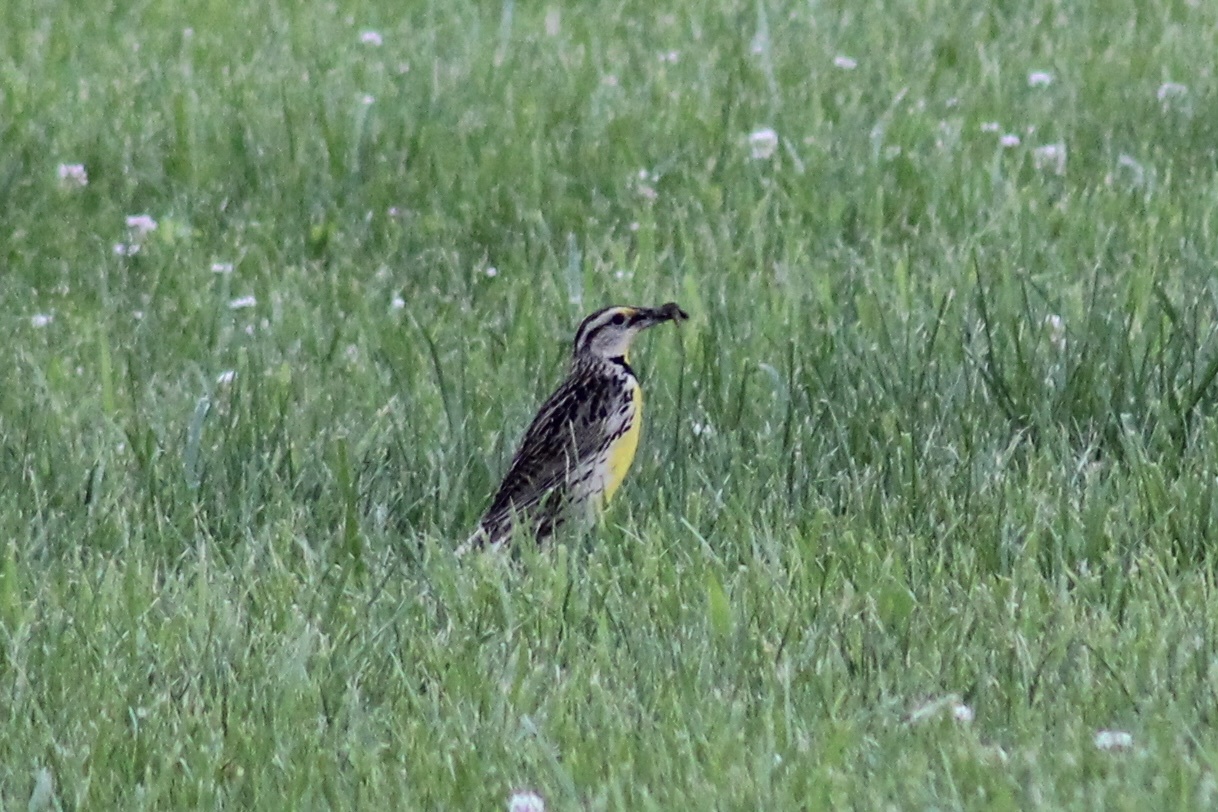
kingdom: Animalia
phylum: Chordata
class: Aves
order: Passeriformes
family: Icteridae
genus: Sturnella
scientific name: Sturnella magna
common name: Eastern meadowlark
